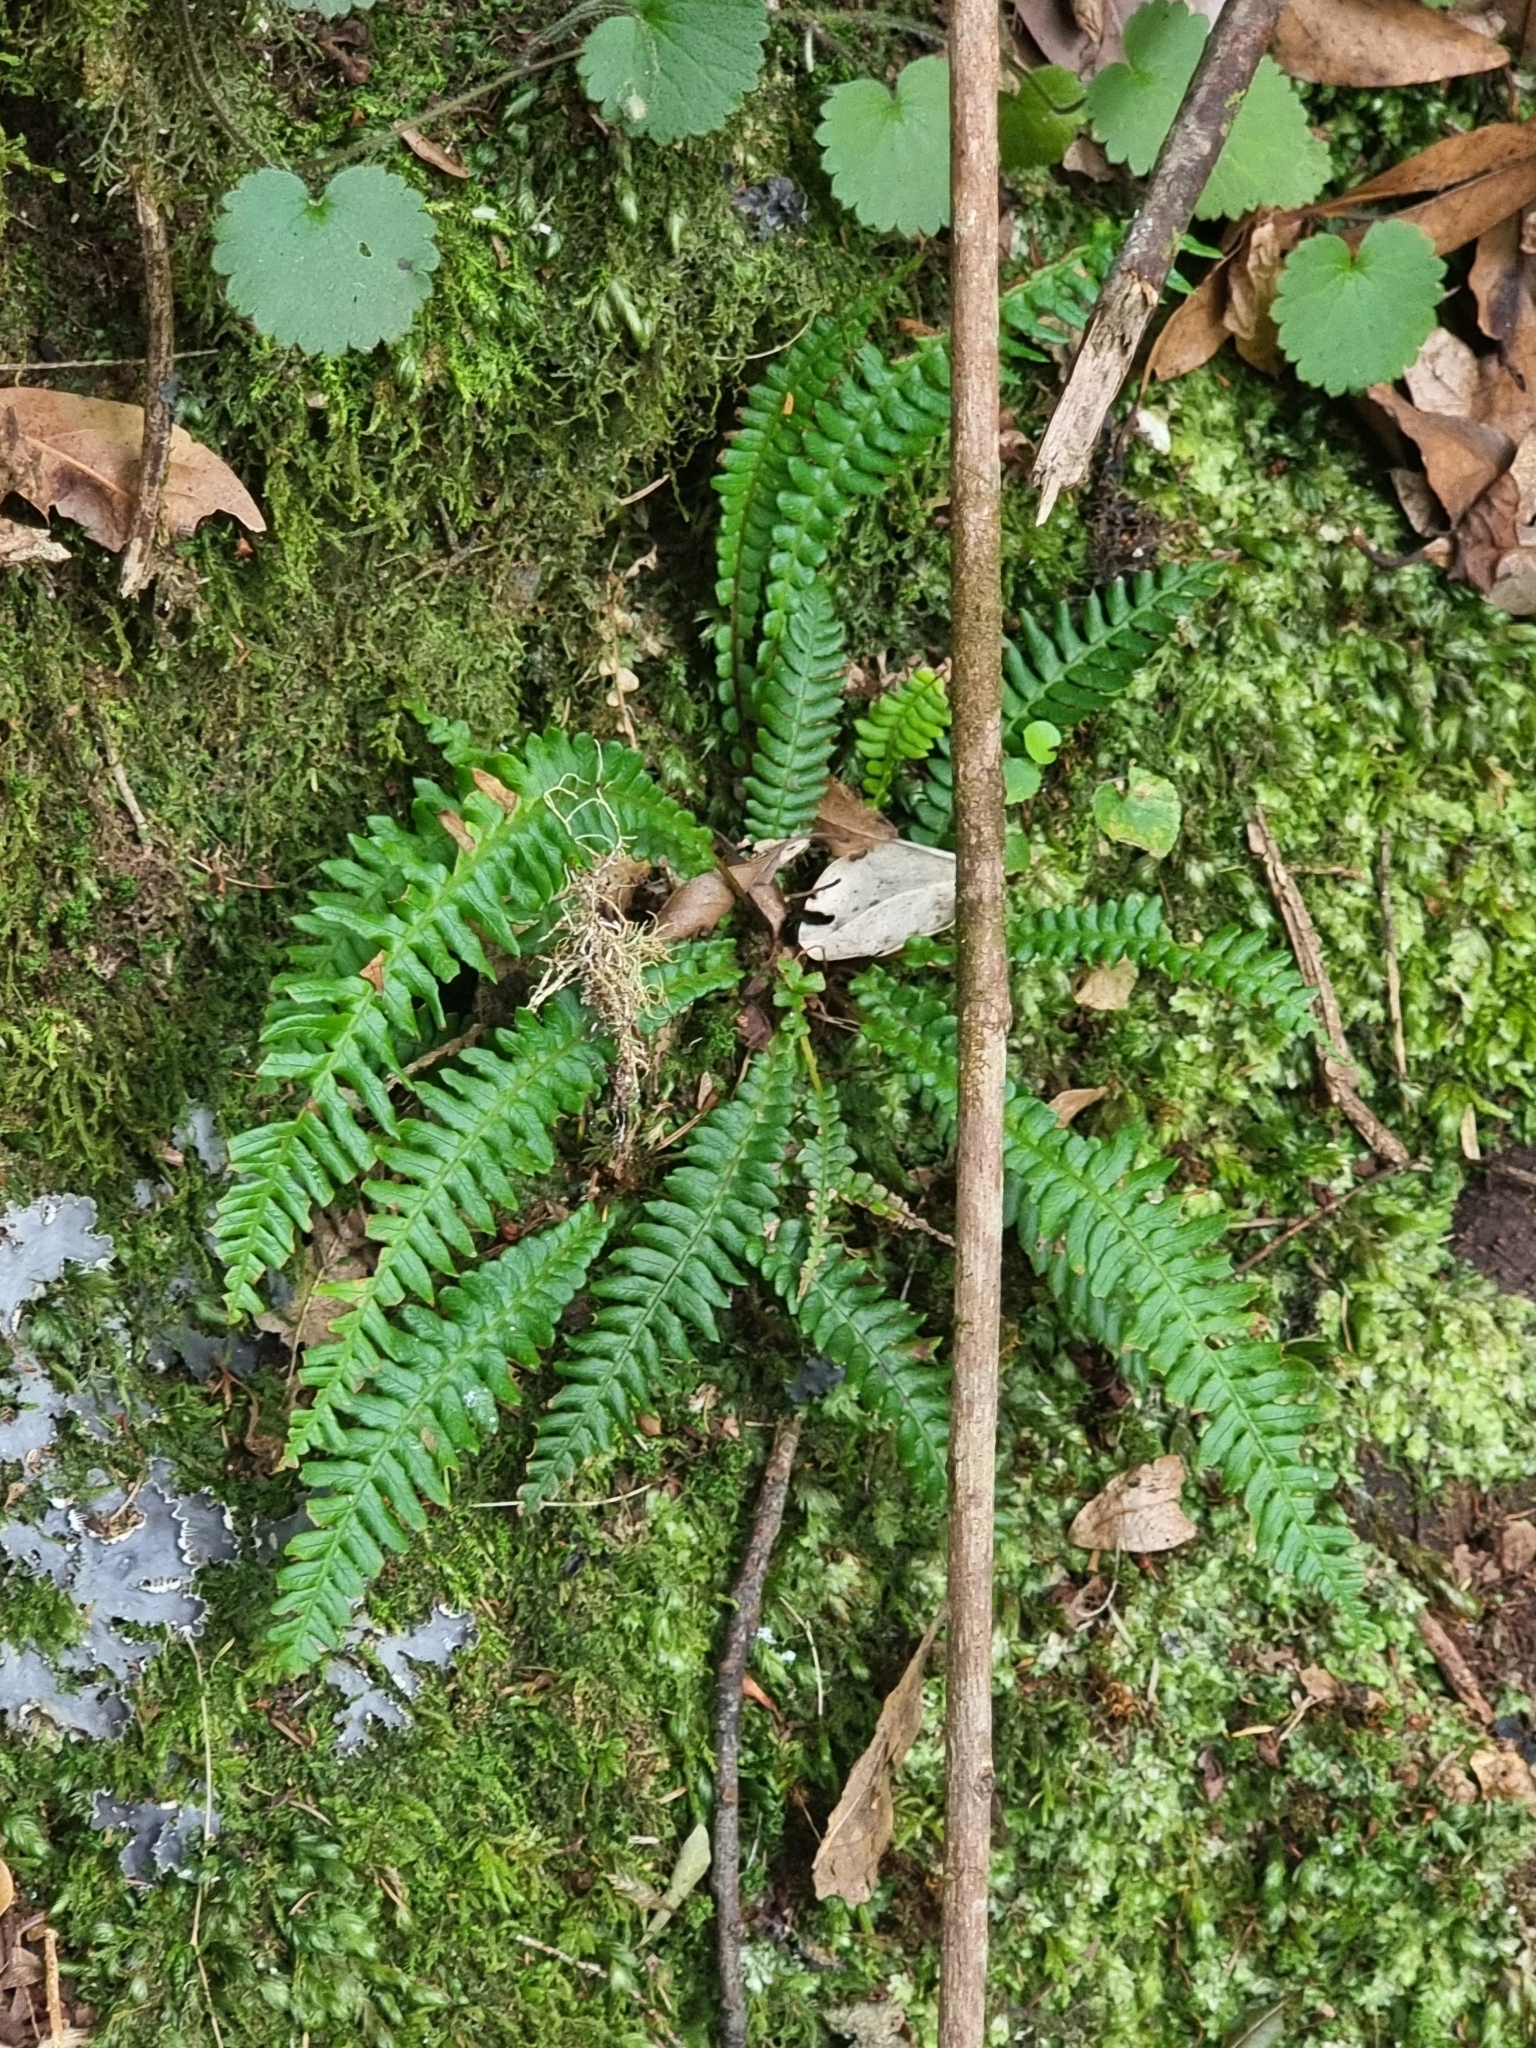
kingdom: Plantae
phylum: Tracheophyta
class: Polypodiopsida
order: Polypodiales
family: Blechnaceae
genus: Struthiopteris
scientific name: Struthiopteris spicant
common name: Deer fern
